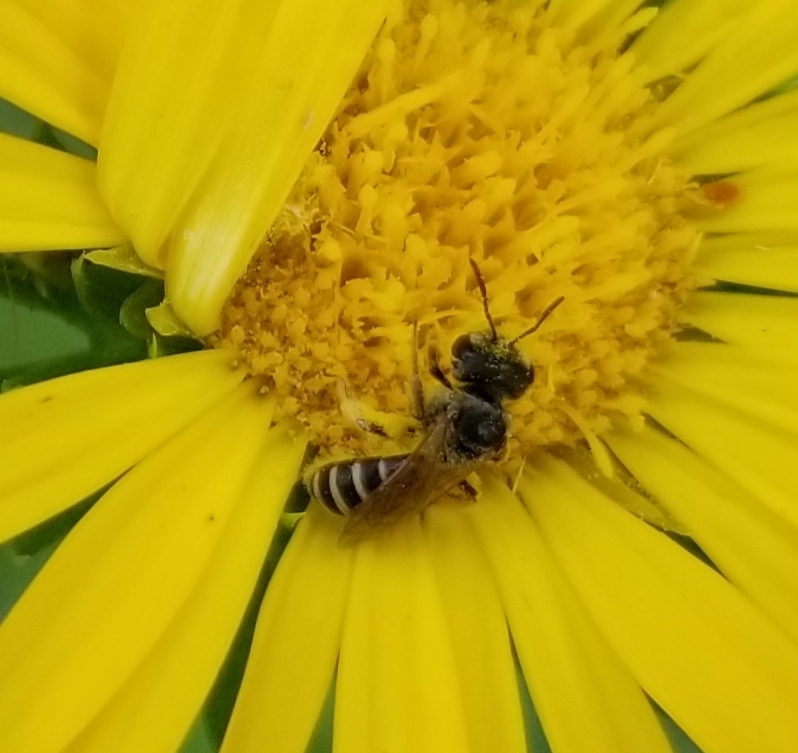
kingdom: Animalia
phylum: Arthropoda
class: Insecta
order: Hymenoptera
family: Halictidae
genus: Halictus
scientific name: Halictus ligatus
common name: Ligated furrow bee
